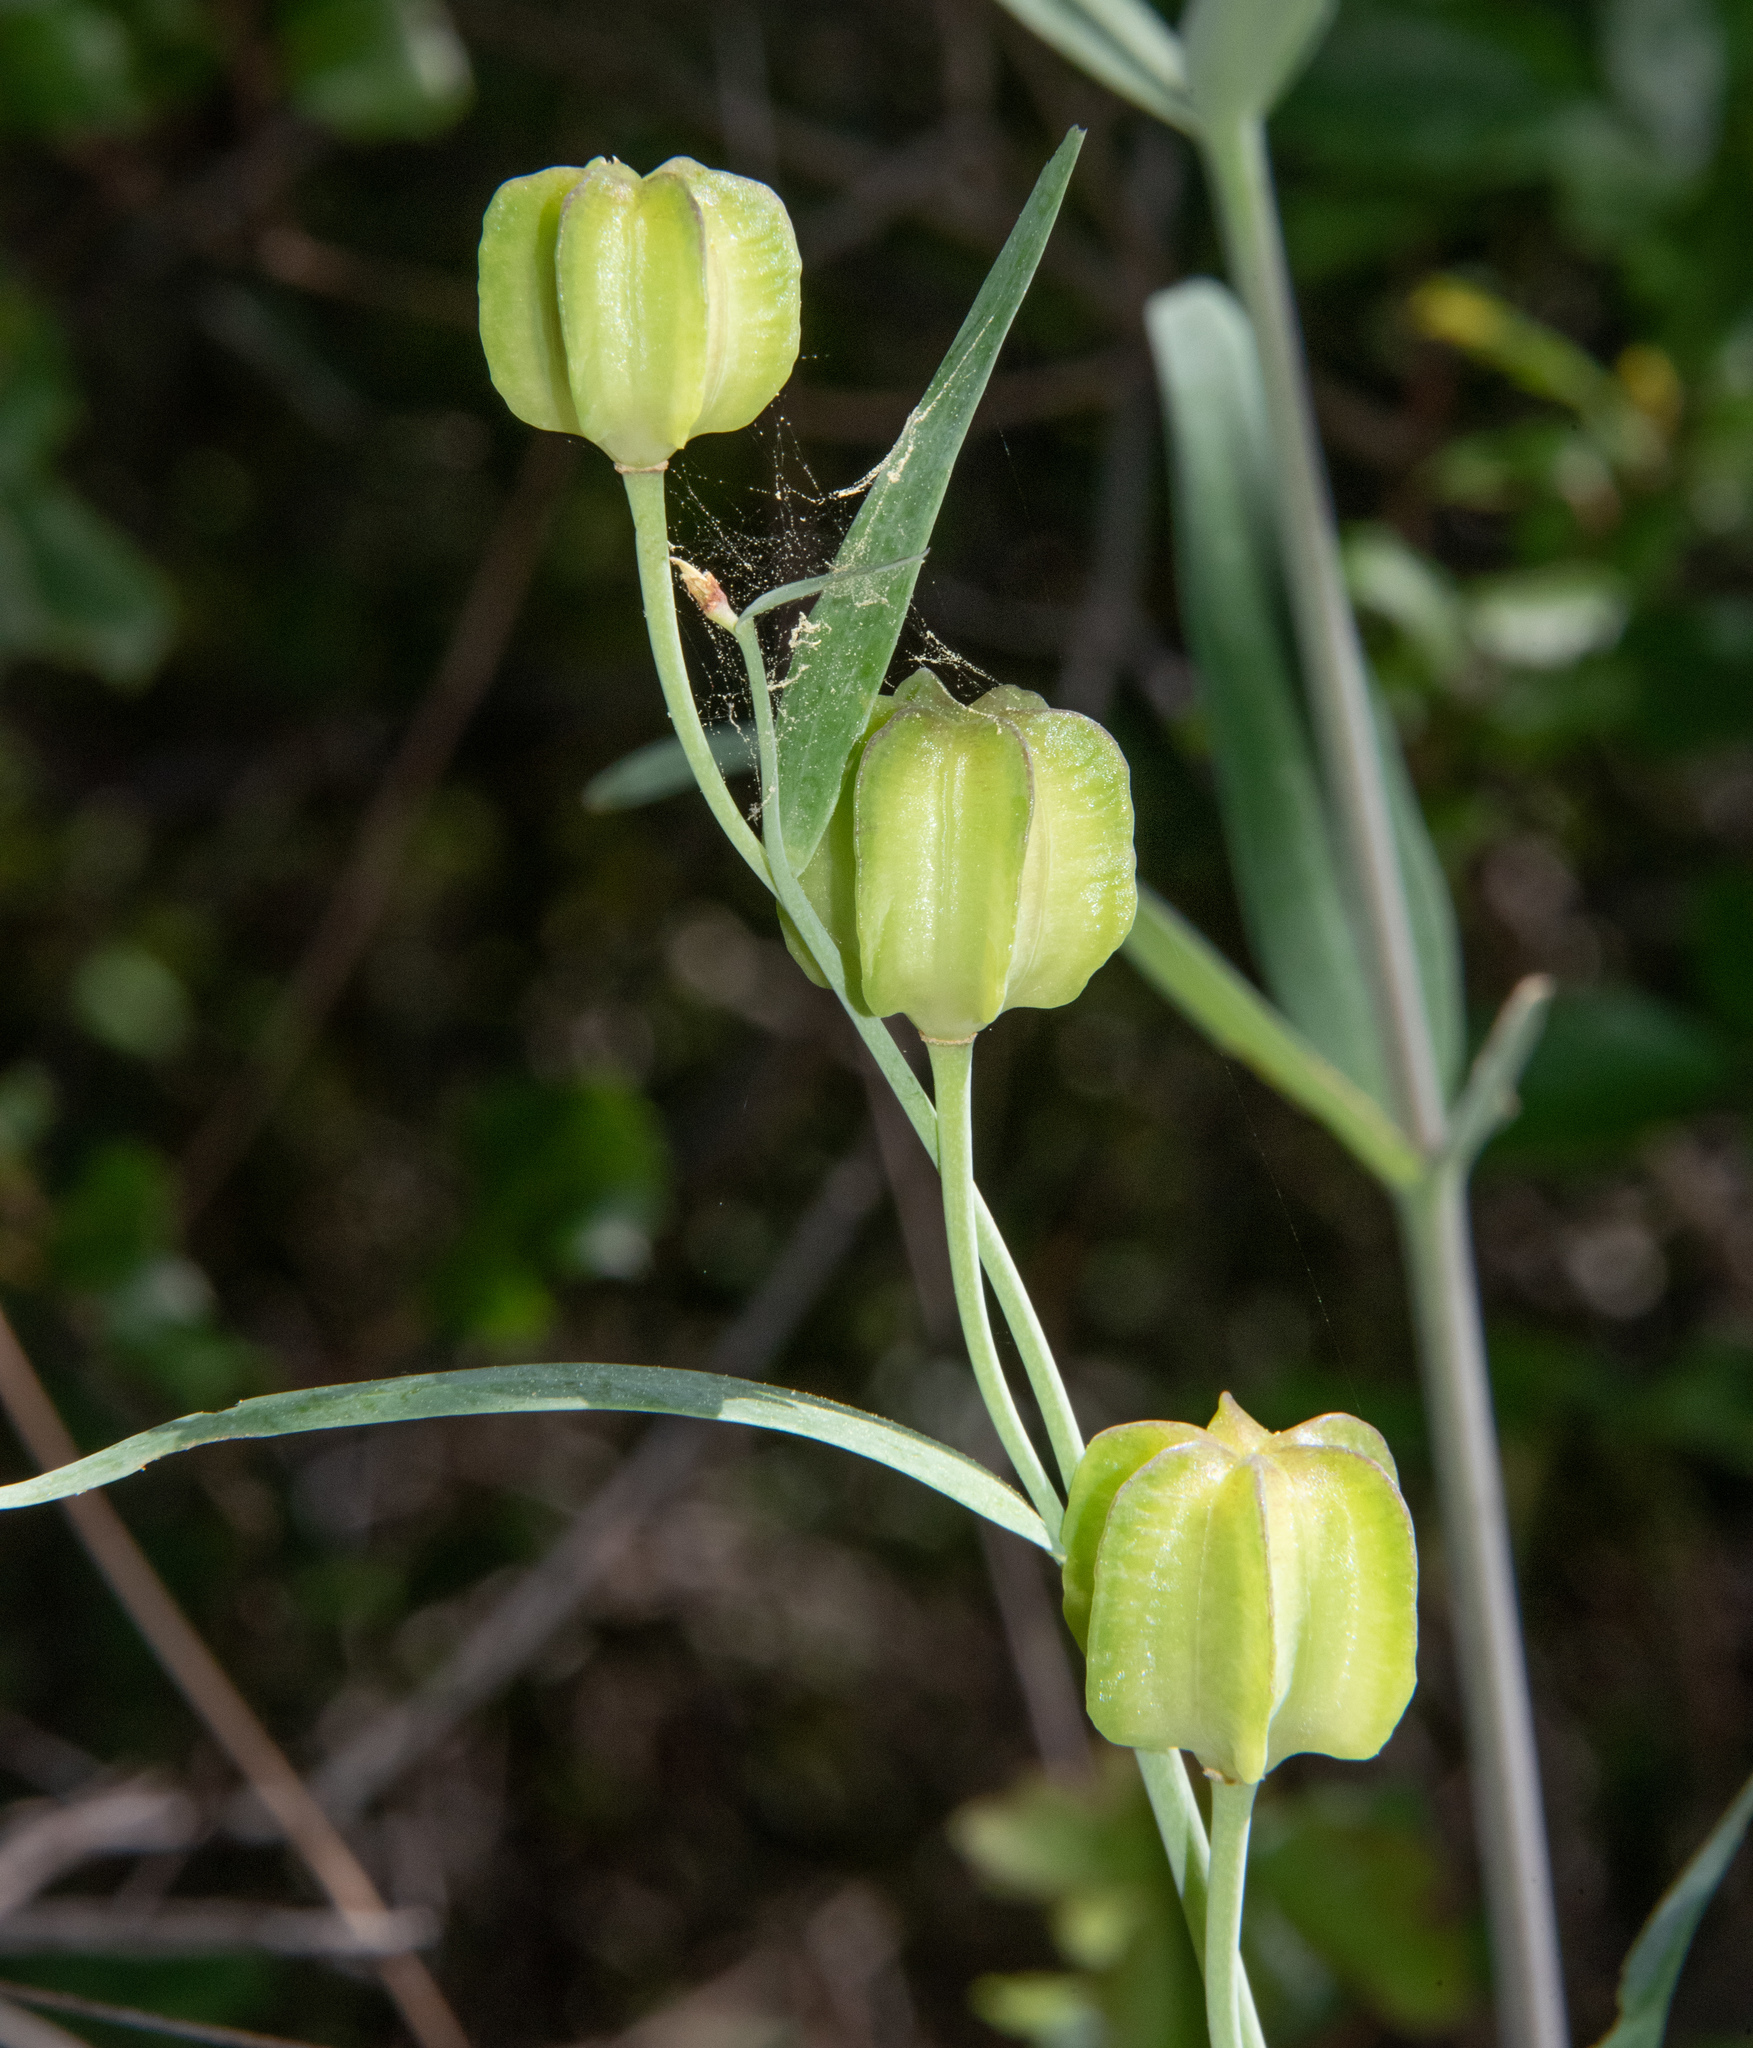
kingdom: Plantae
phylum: Tracheophyta
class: Liliopsida
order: Liliales
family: Liliaceae
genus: Fritillaria
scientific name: Fritillaria affinis
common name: Ojai fritillary
